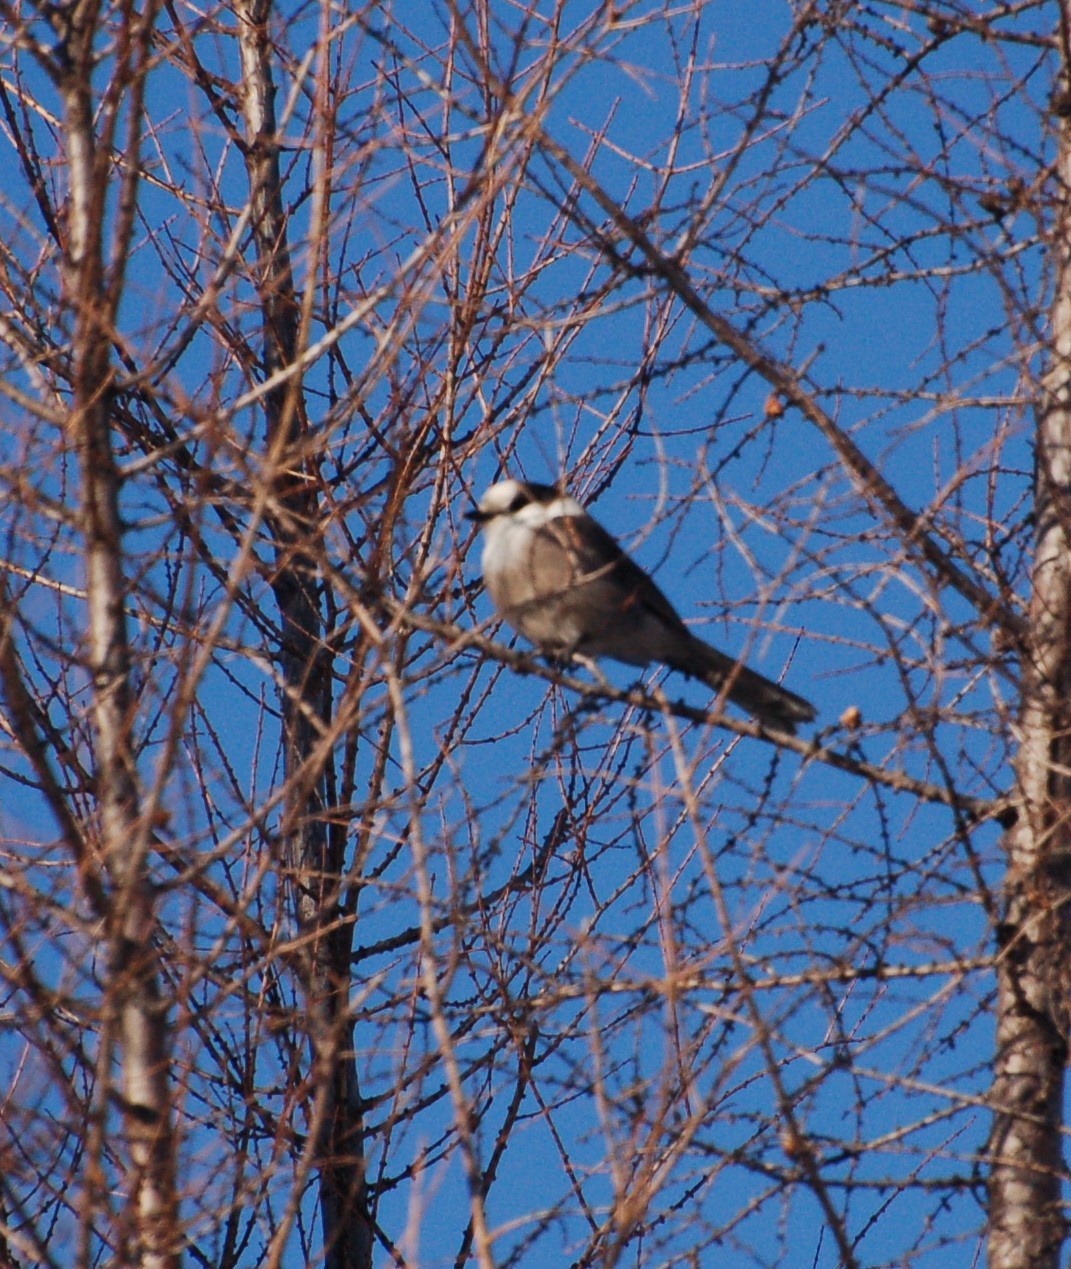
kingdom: Animalia
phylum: Chordata
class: Aves
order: Passeriformes
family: Corvidae
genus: Perisoreus
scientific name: Perisoreus canadensis
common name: Gray jay
